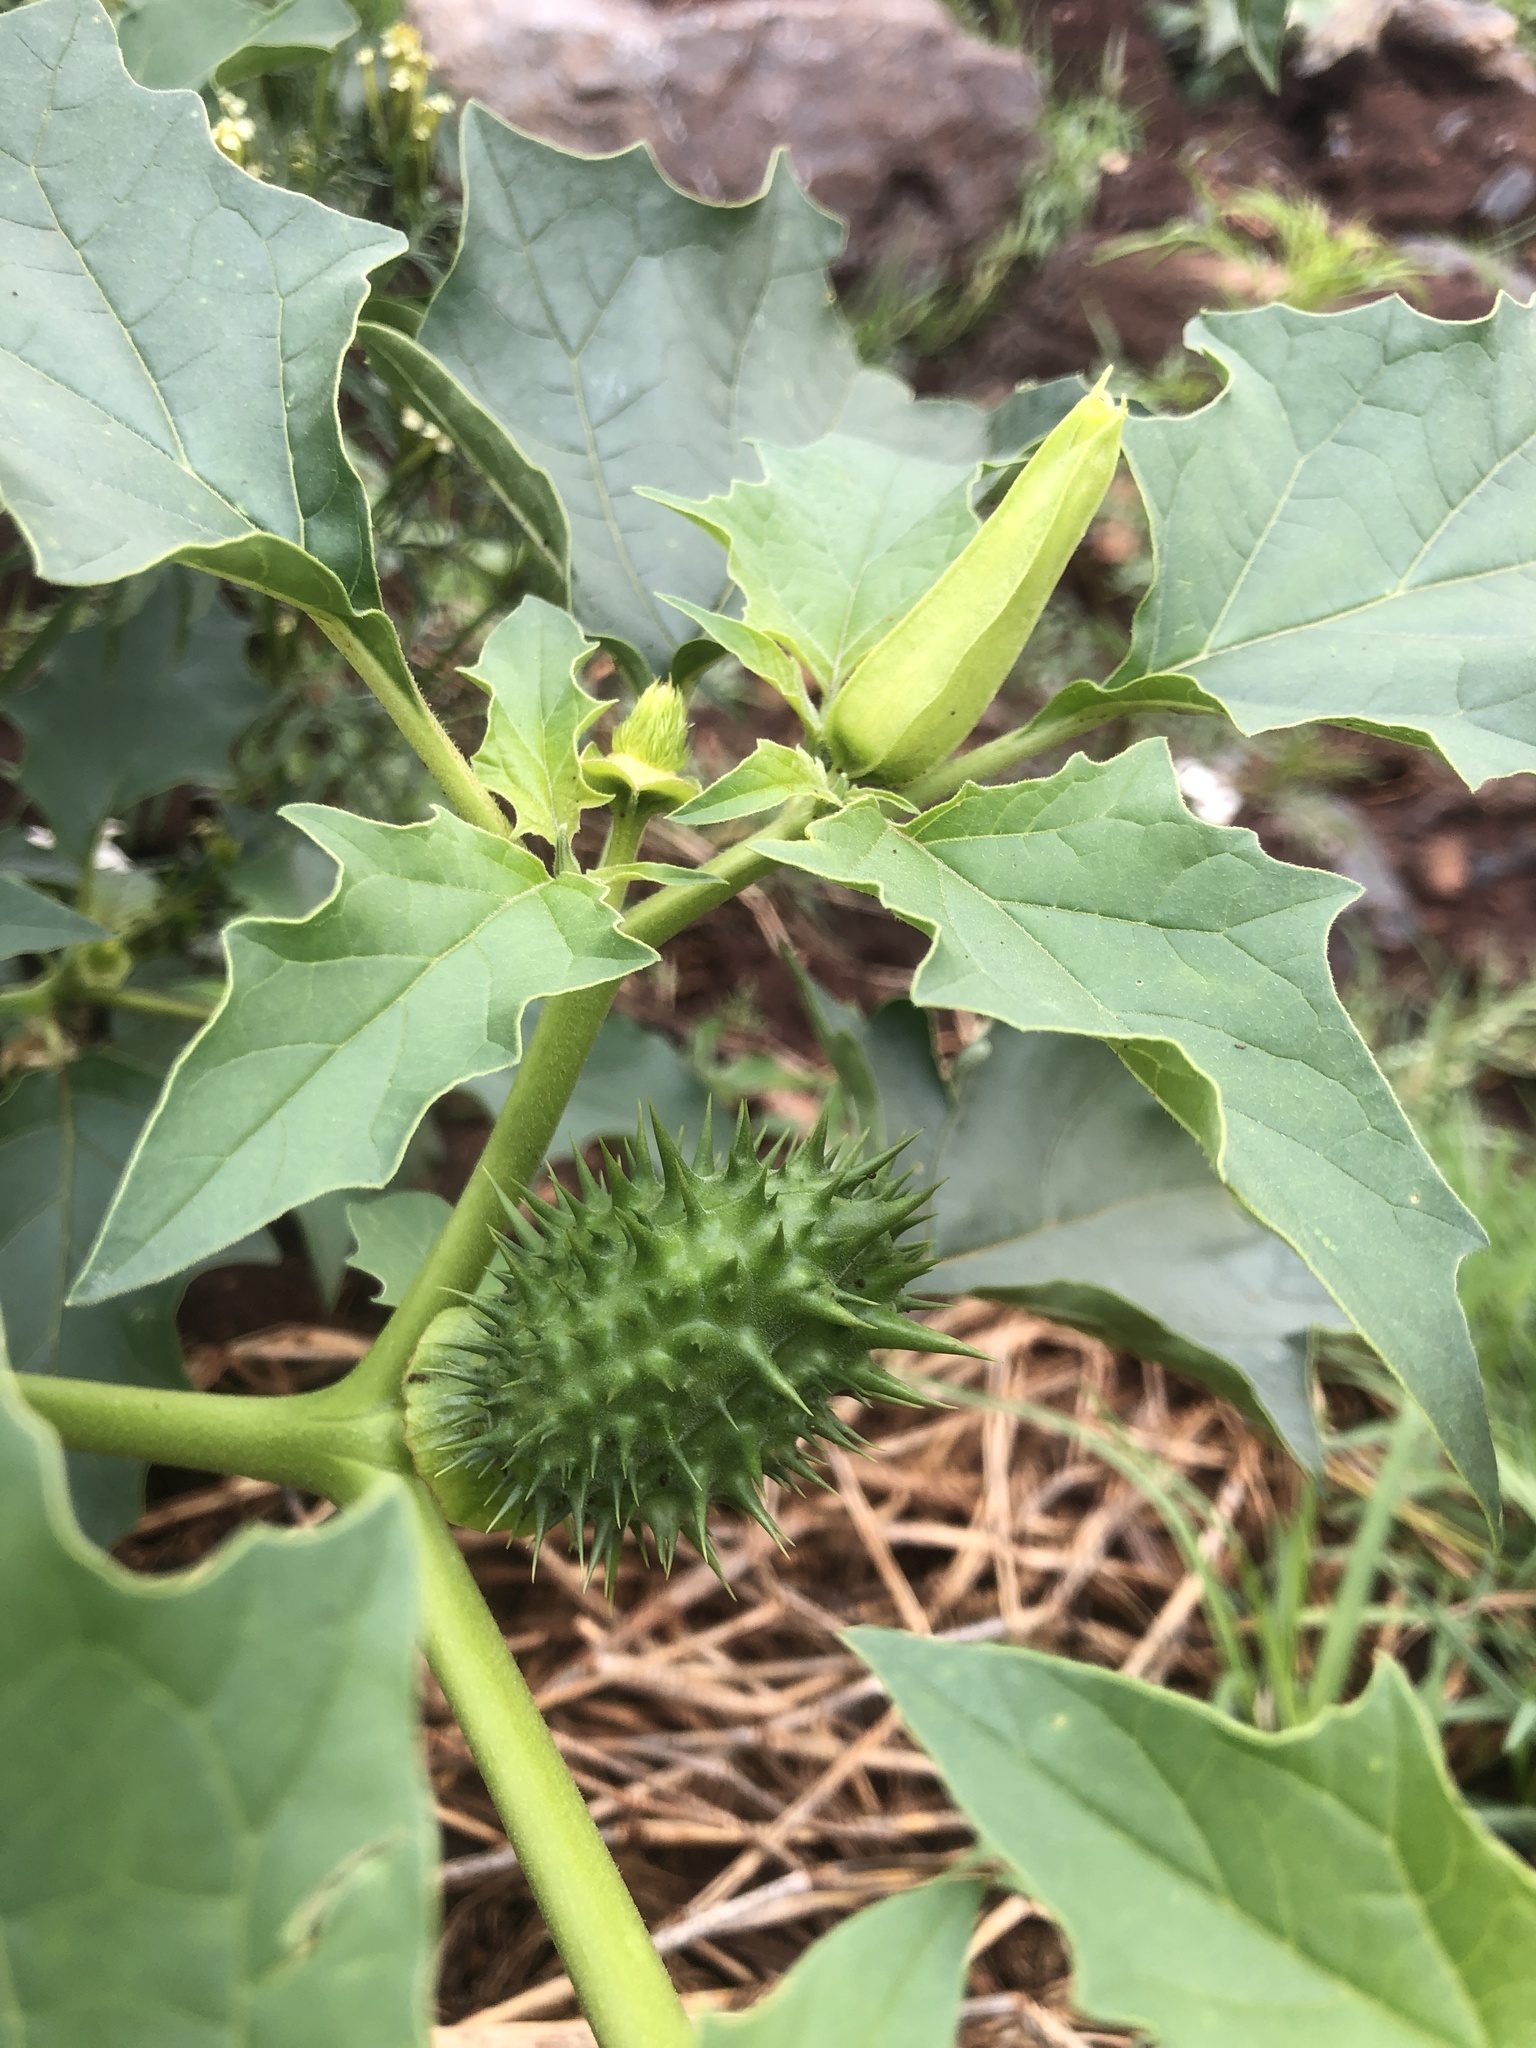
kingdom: Plantae
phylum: Tracheophyta
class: Magnoliopsida
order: Solanales
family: Solanaceae
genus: Datura
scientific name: Datura stramonium
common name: Thorn-apple
